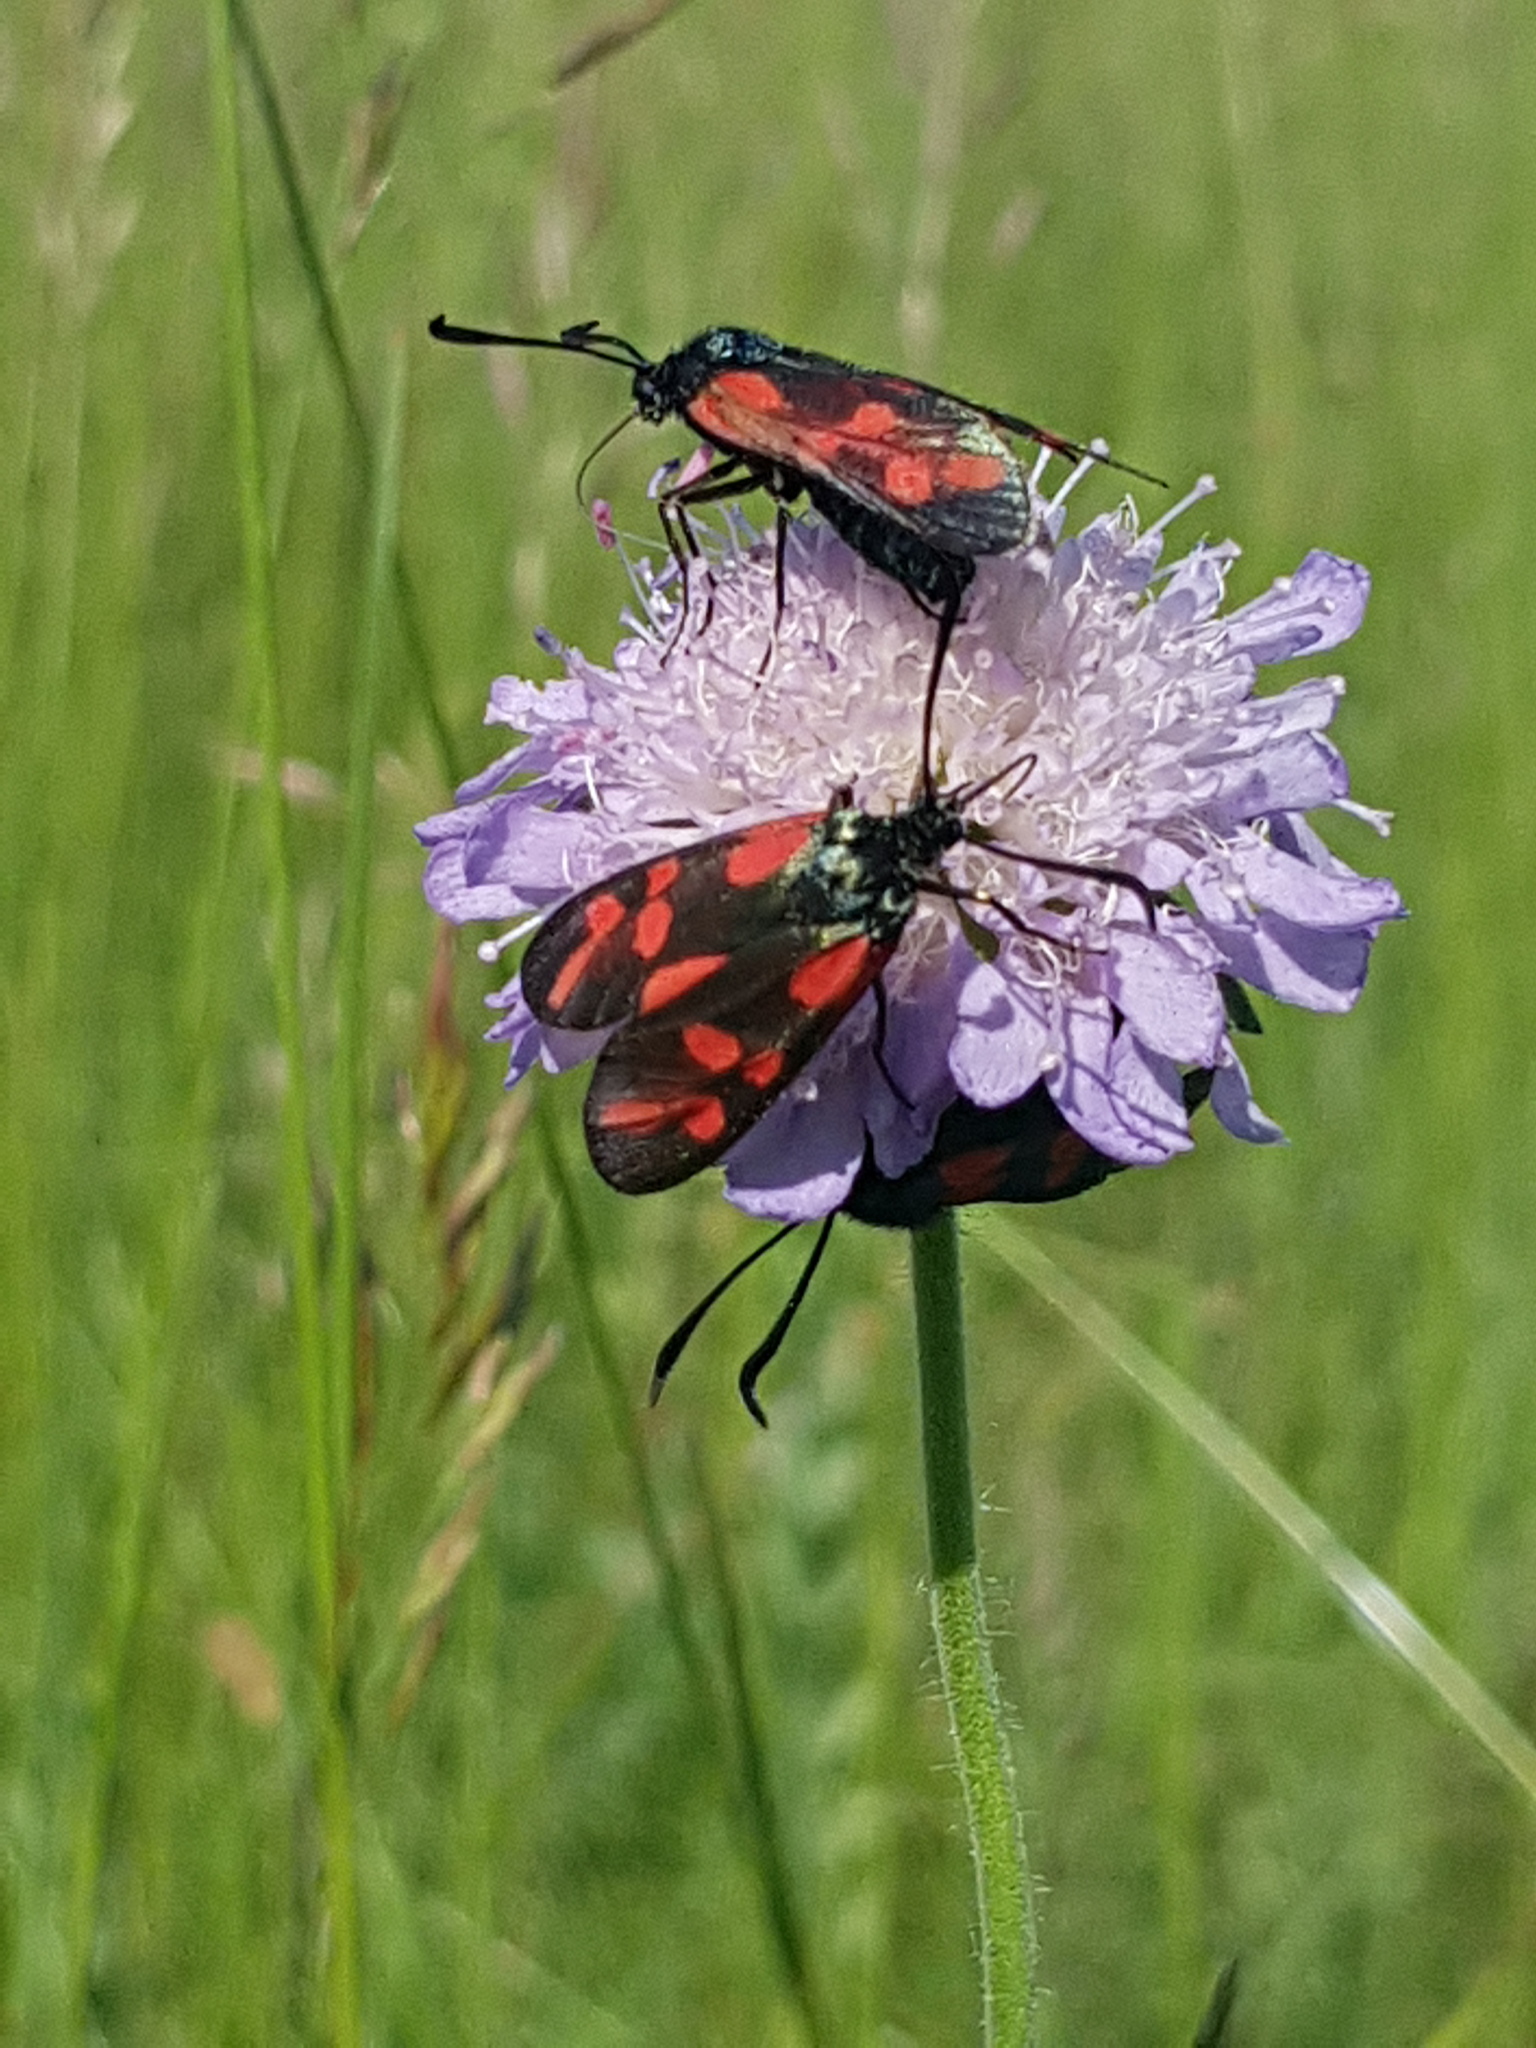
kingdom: Animalia
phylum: Arthropoda
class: Insecta
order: Lepidoptera
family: Zygaenidae
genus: Zygaena
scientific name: Zygaena filipendulae
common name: Six-spot burnet
